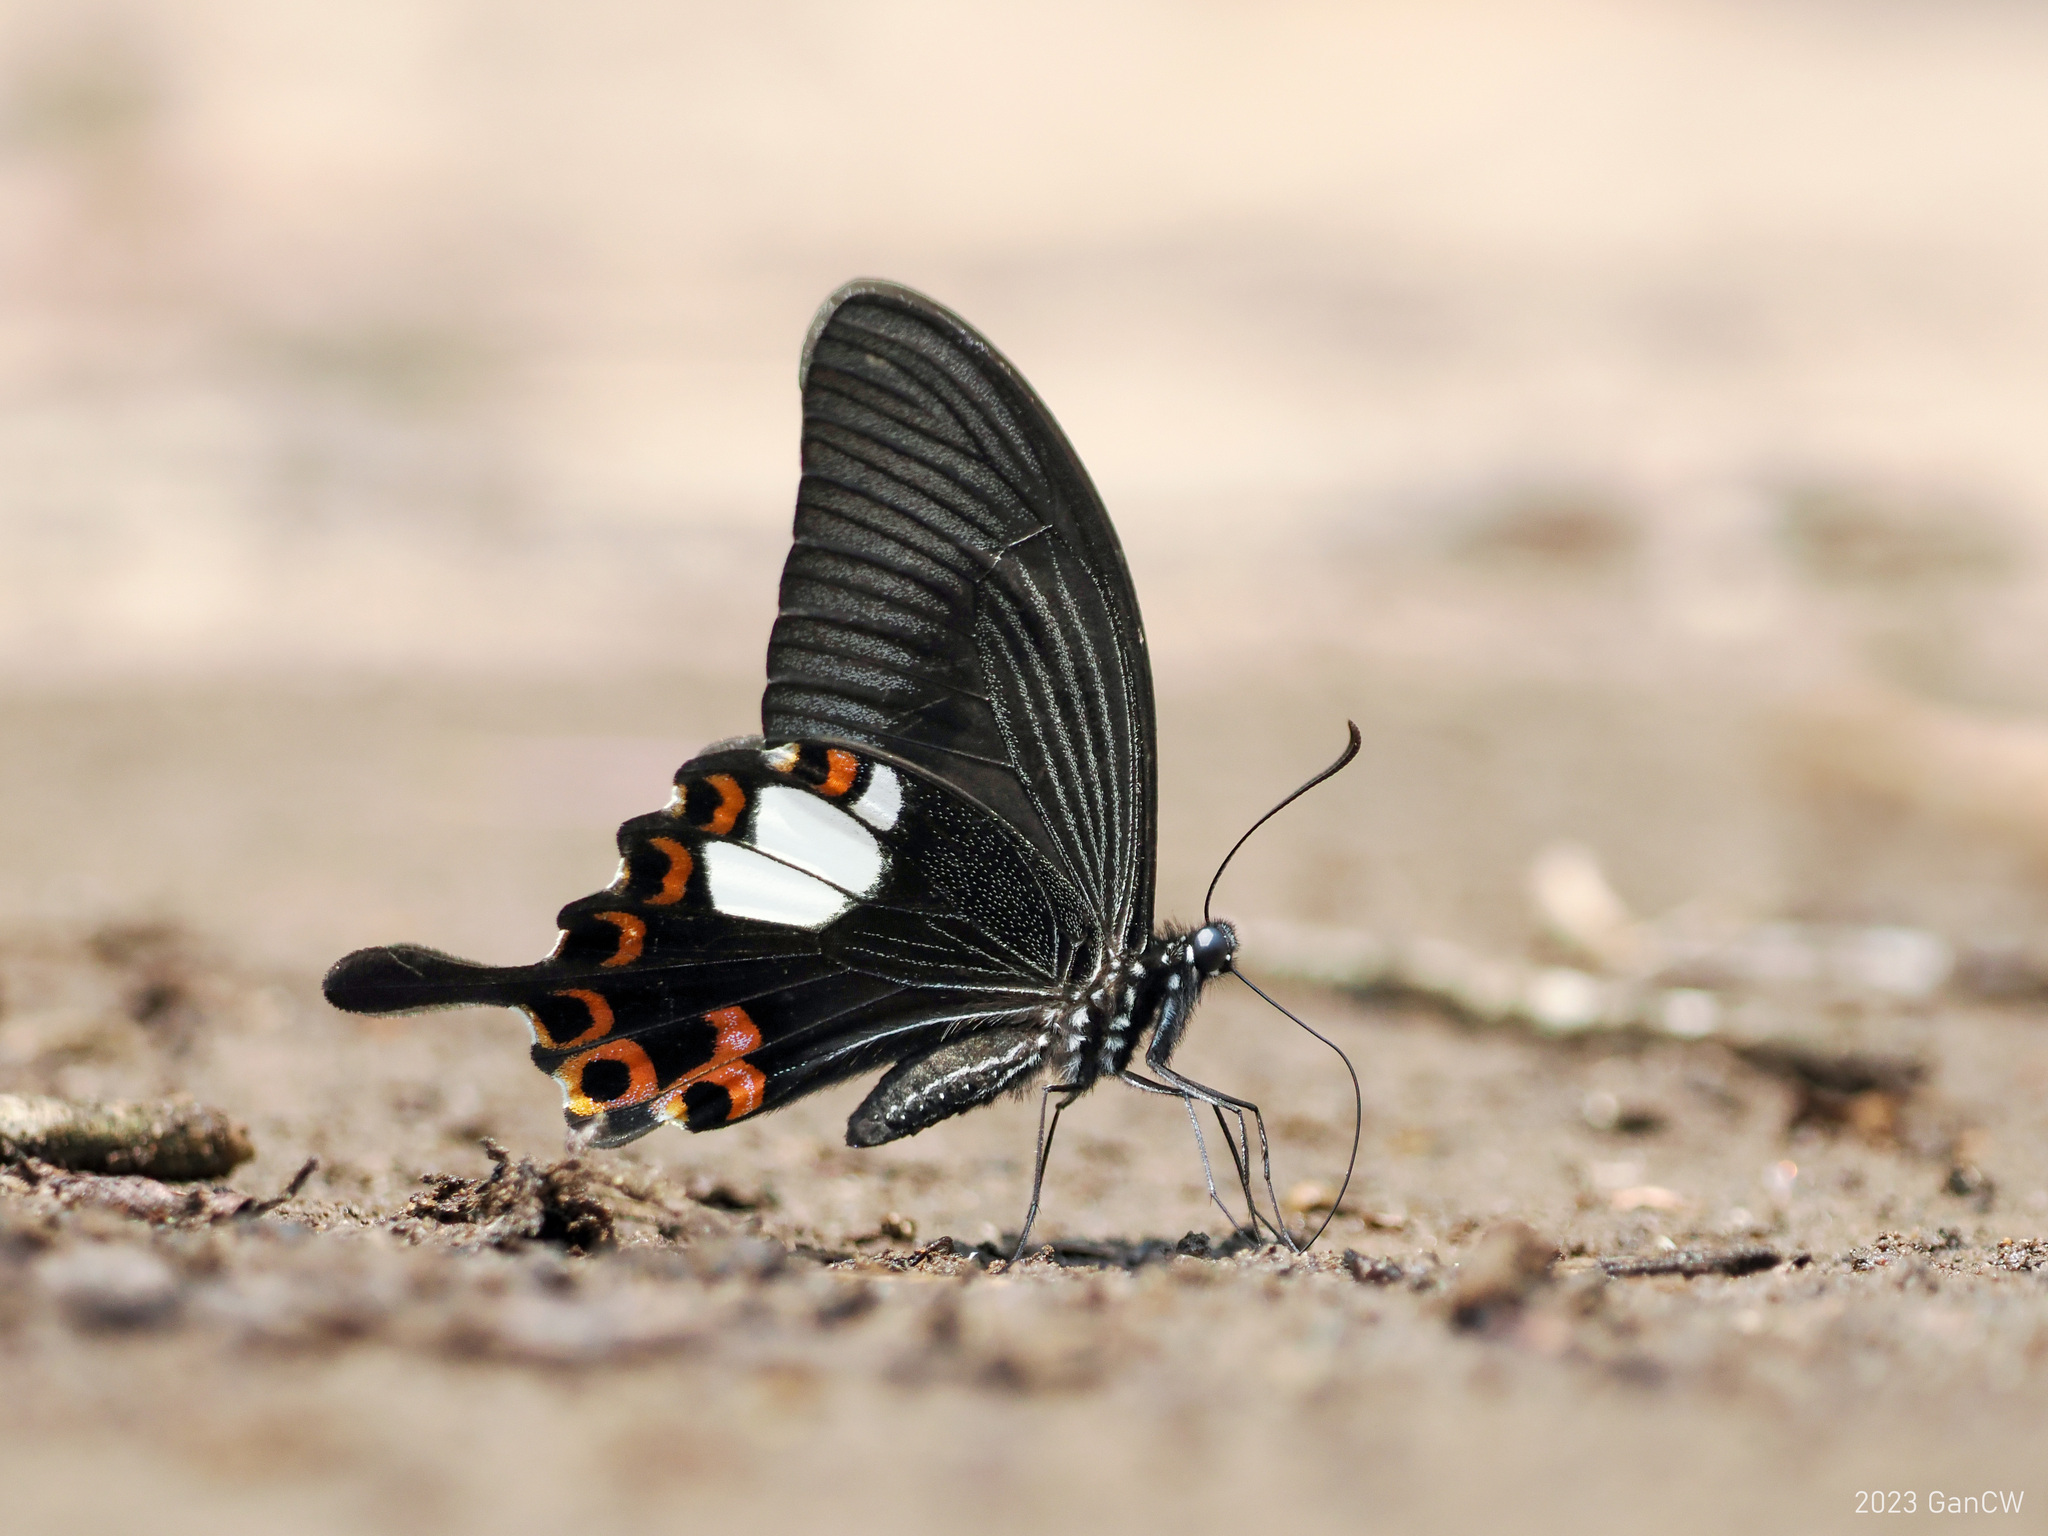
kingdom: Animalia
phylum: Arthropoda
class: Insecta
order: Lepidoptera
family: Papilionidae
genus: Papilio
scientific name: Papilio helenus
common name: Red helen
